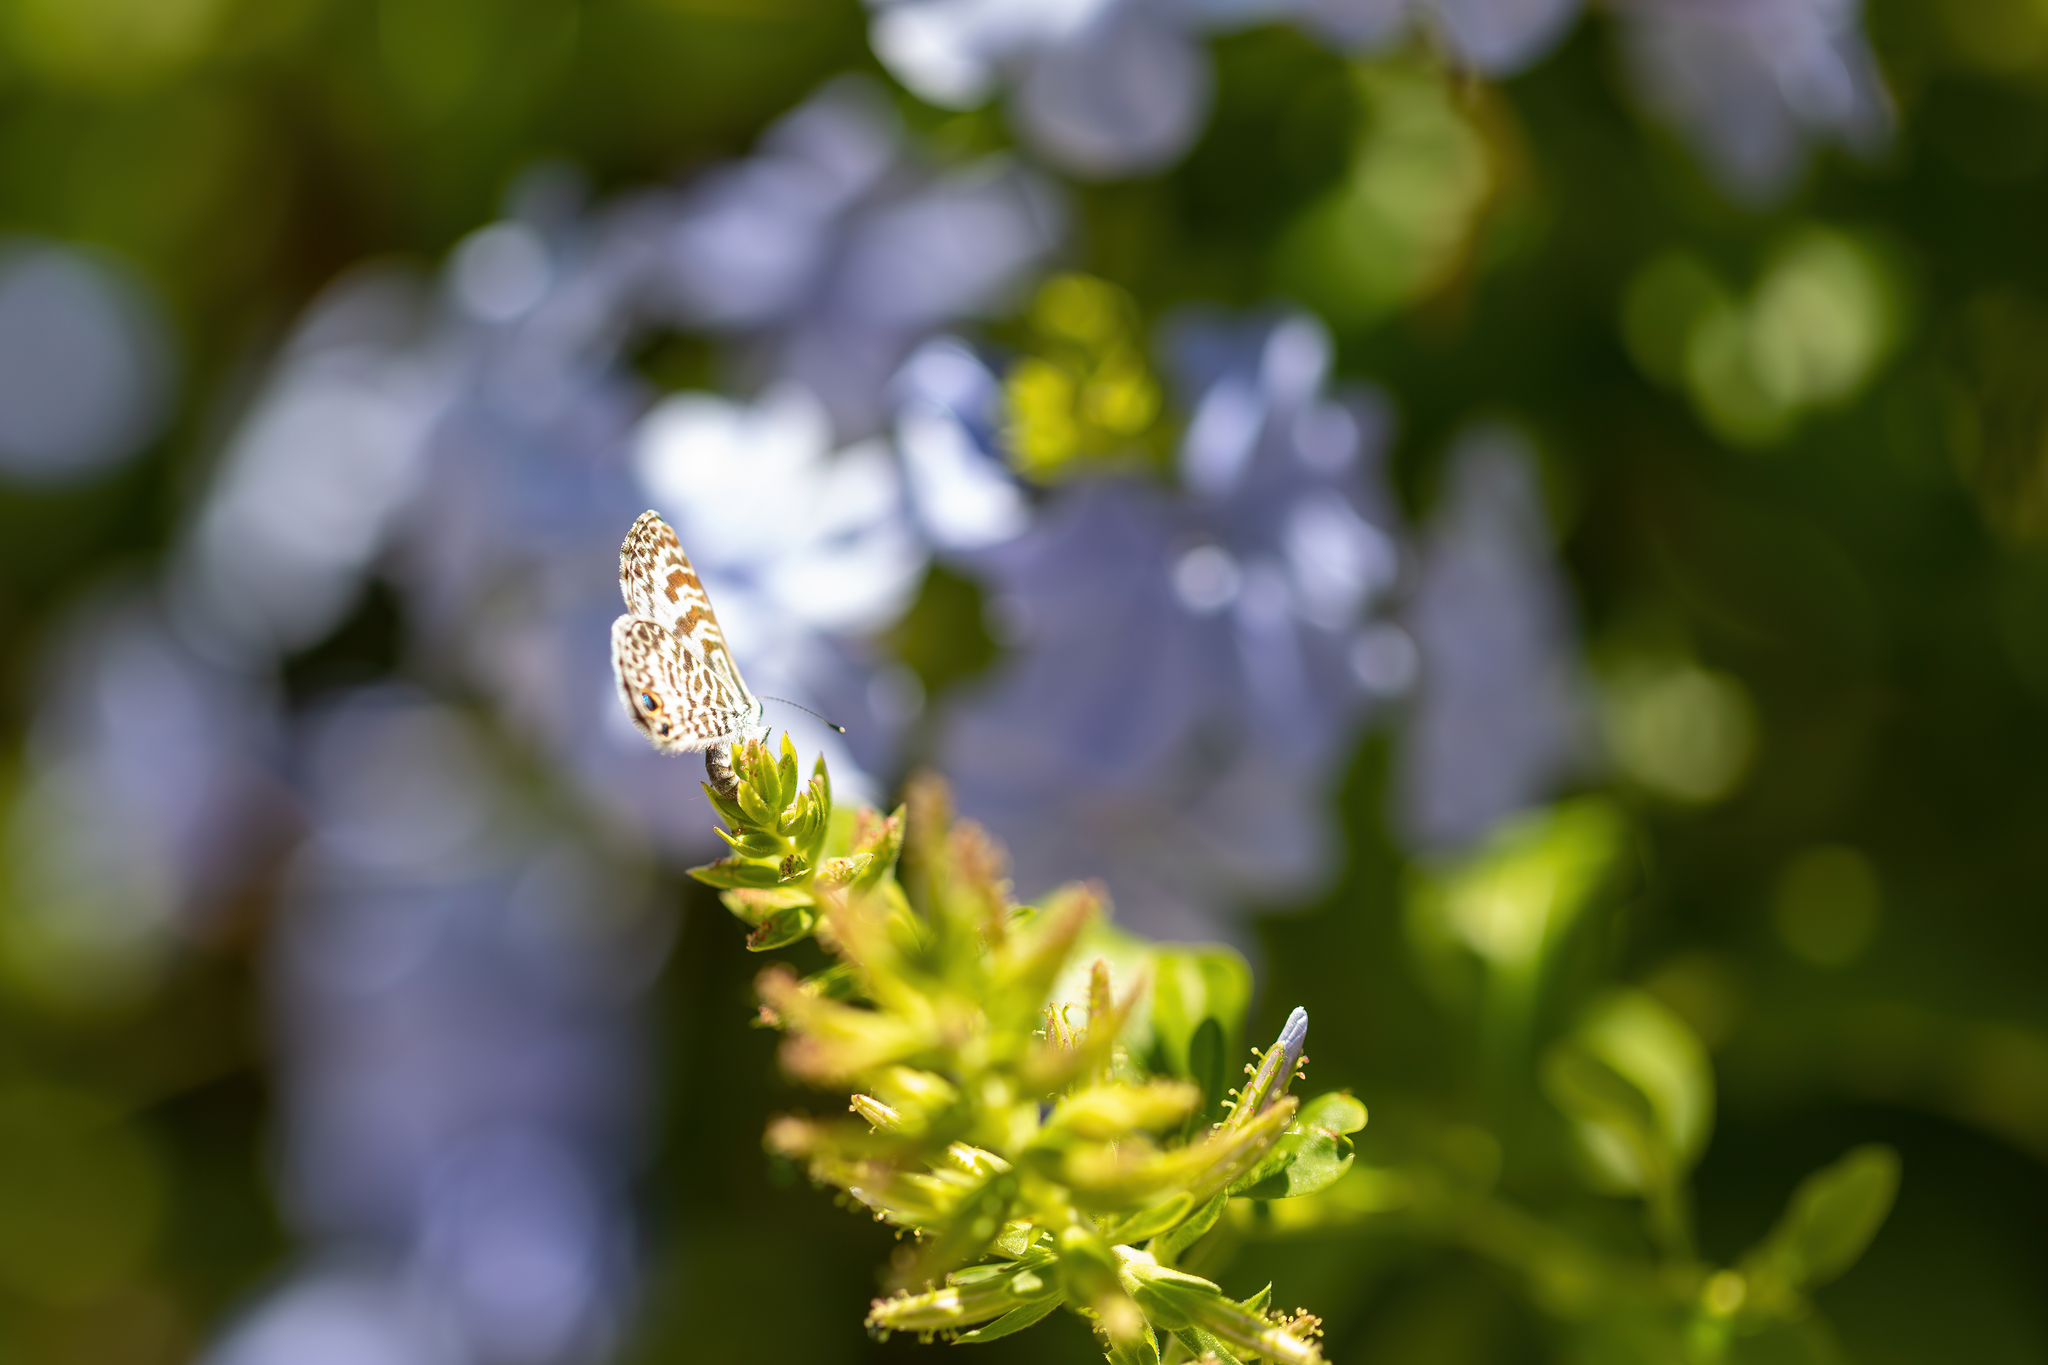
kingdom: Animalia
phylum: Arthropoda
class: Insecta
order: Lepidoptera
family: Lycaenidae
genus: Leptotes
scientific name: Leptotes cassius
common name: Cassius blue
